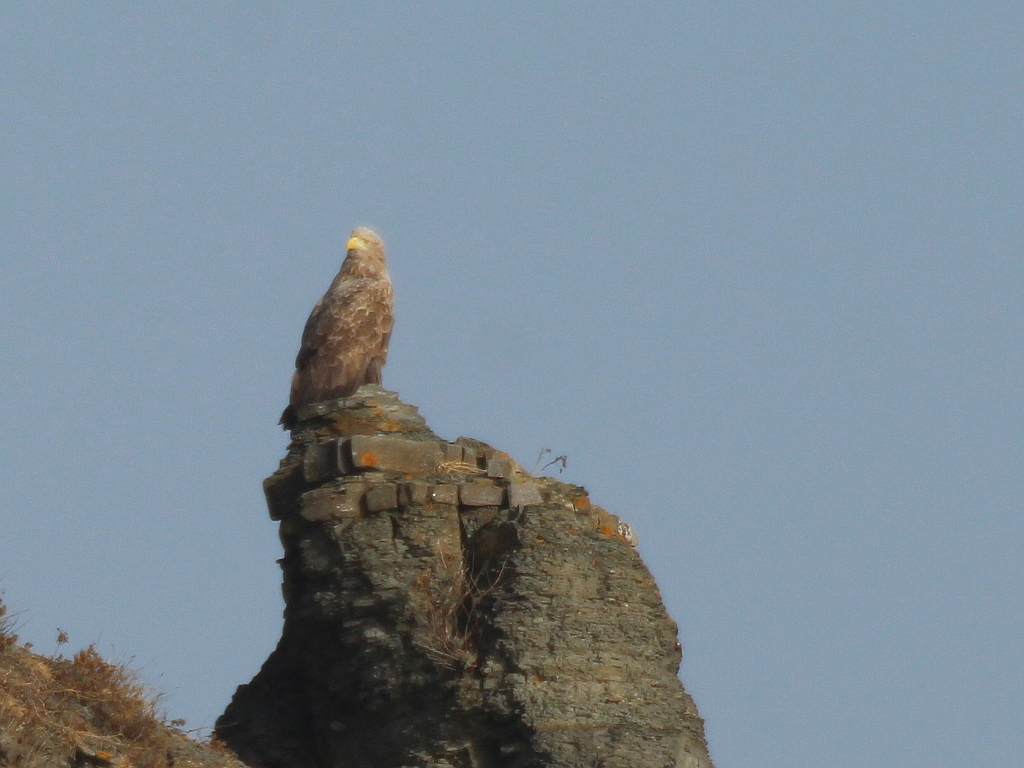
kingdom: Animalia
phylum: Chordata
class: Aves
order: Accipitriformes
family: Accipitridae
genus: Haliaeetus
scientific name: Haliaeetus albicilla
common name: White-tailed eagle
